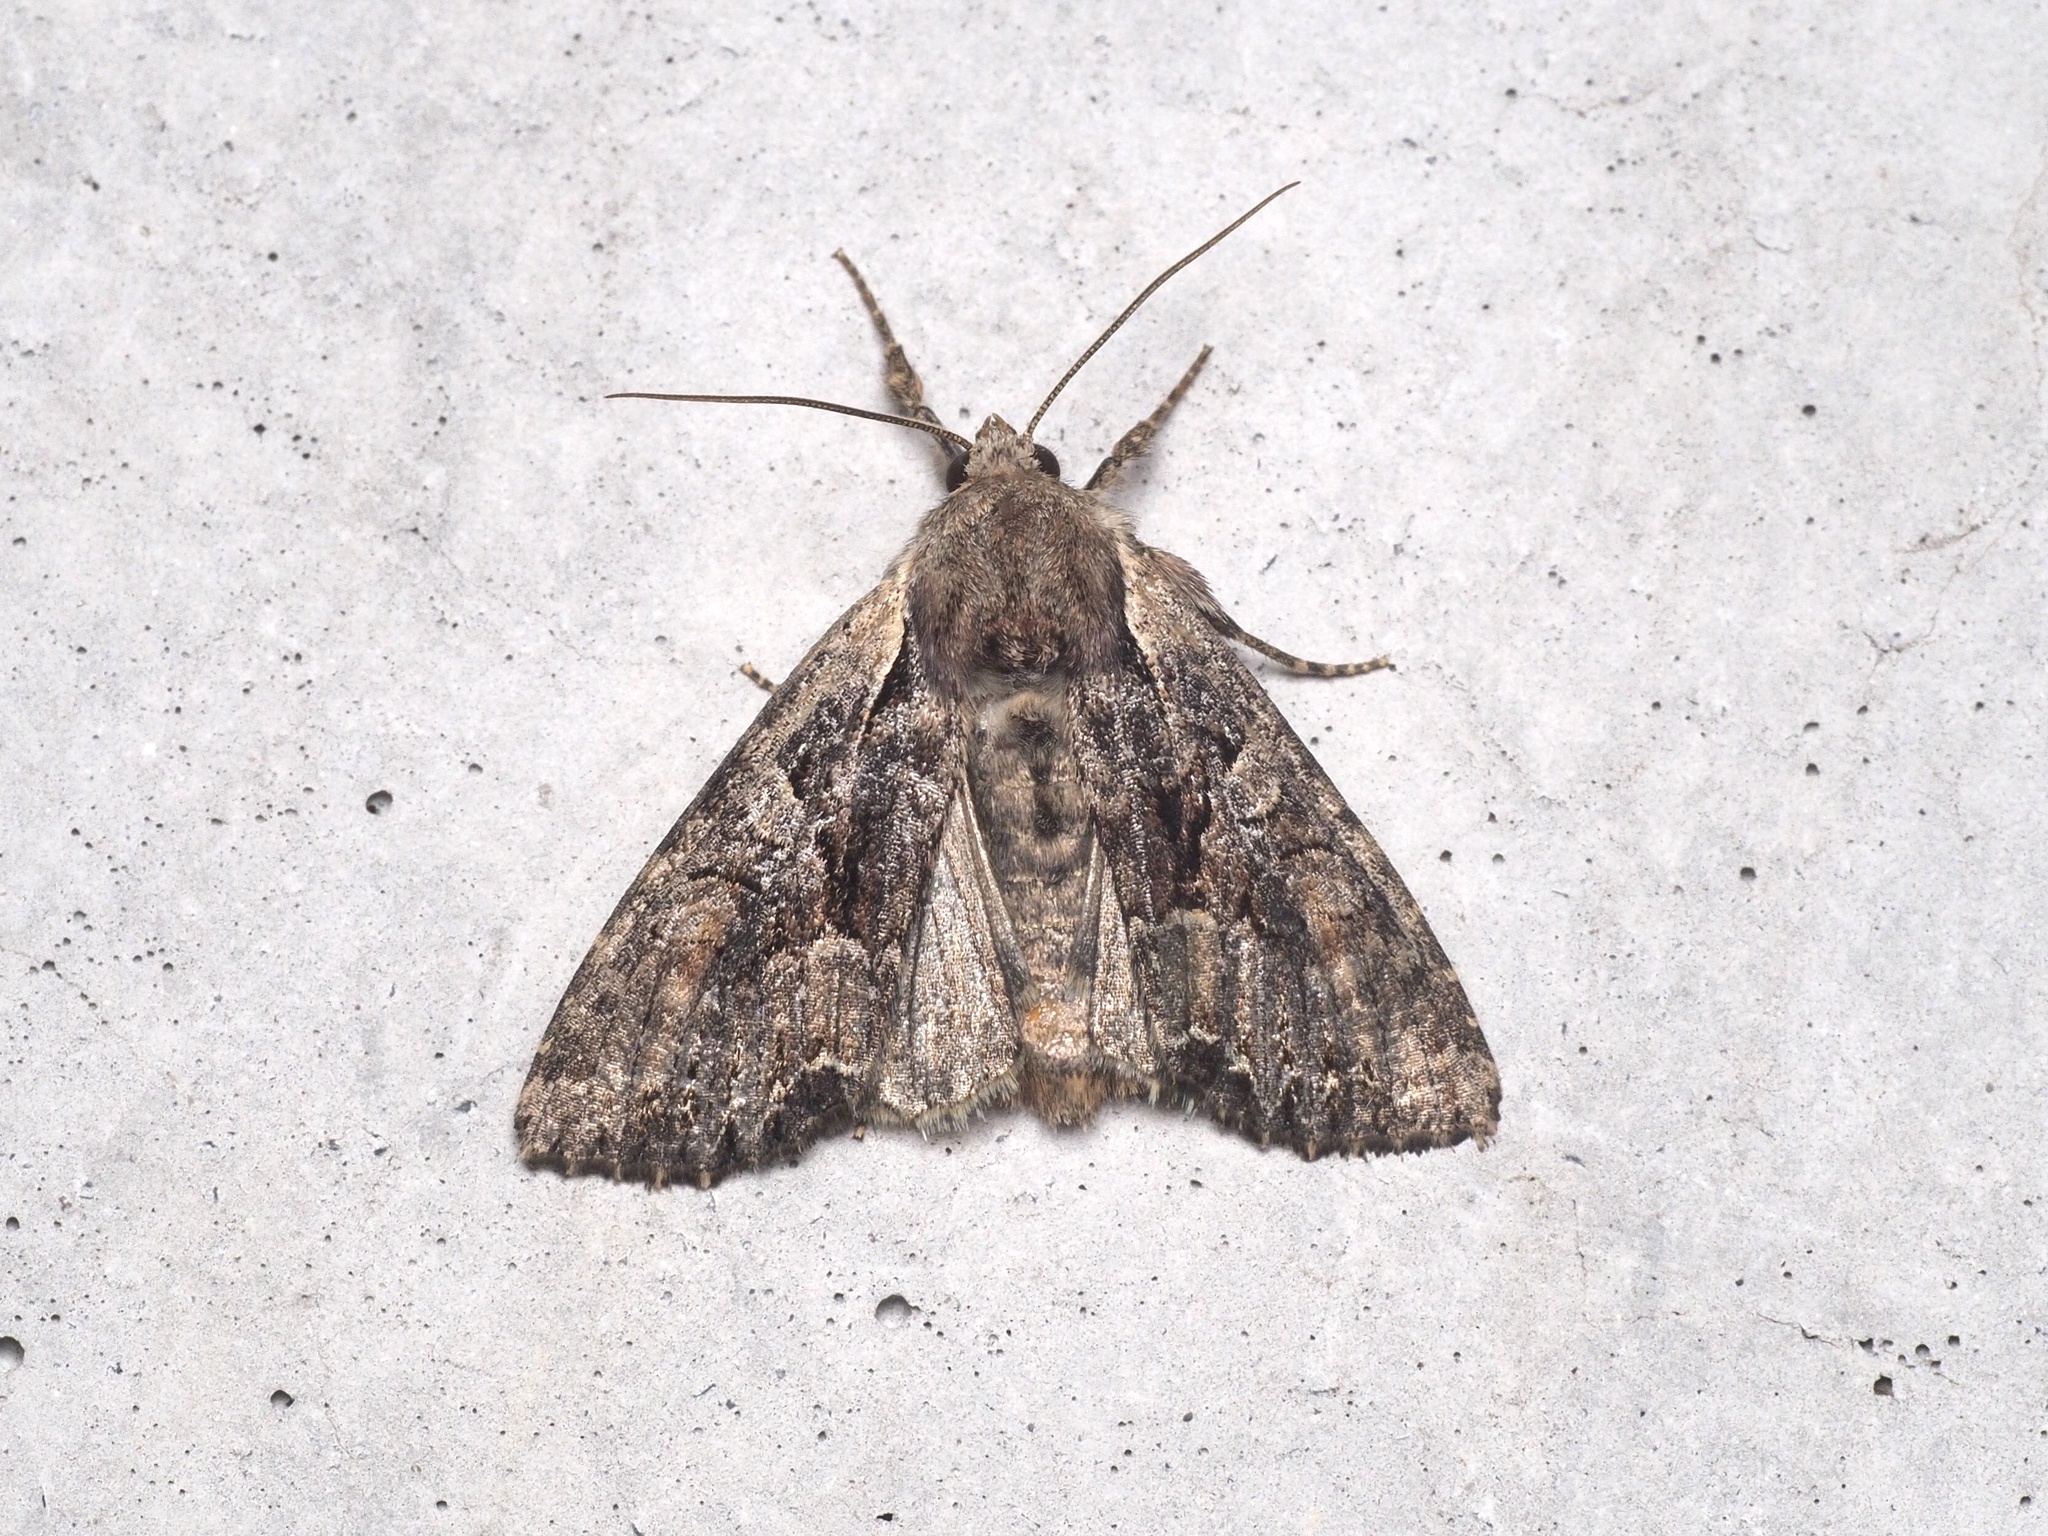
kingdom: Animalia
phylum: Arthropoda
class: Insecta
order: Lepidoptera
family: Noctuidae
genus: Lacanobia
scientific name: Lacanobia thalassina
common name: Pale-shouldered brocade
